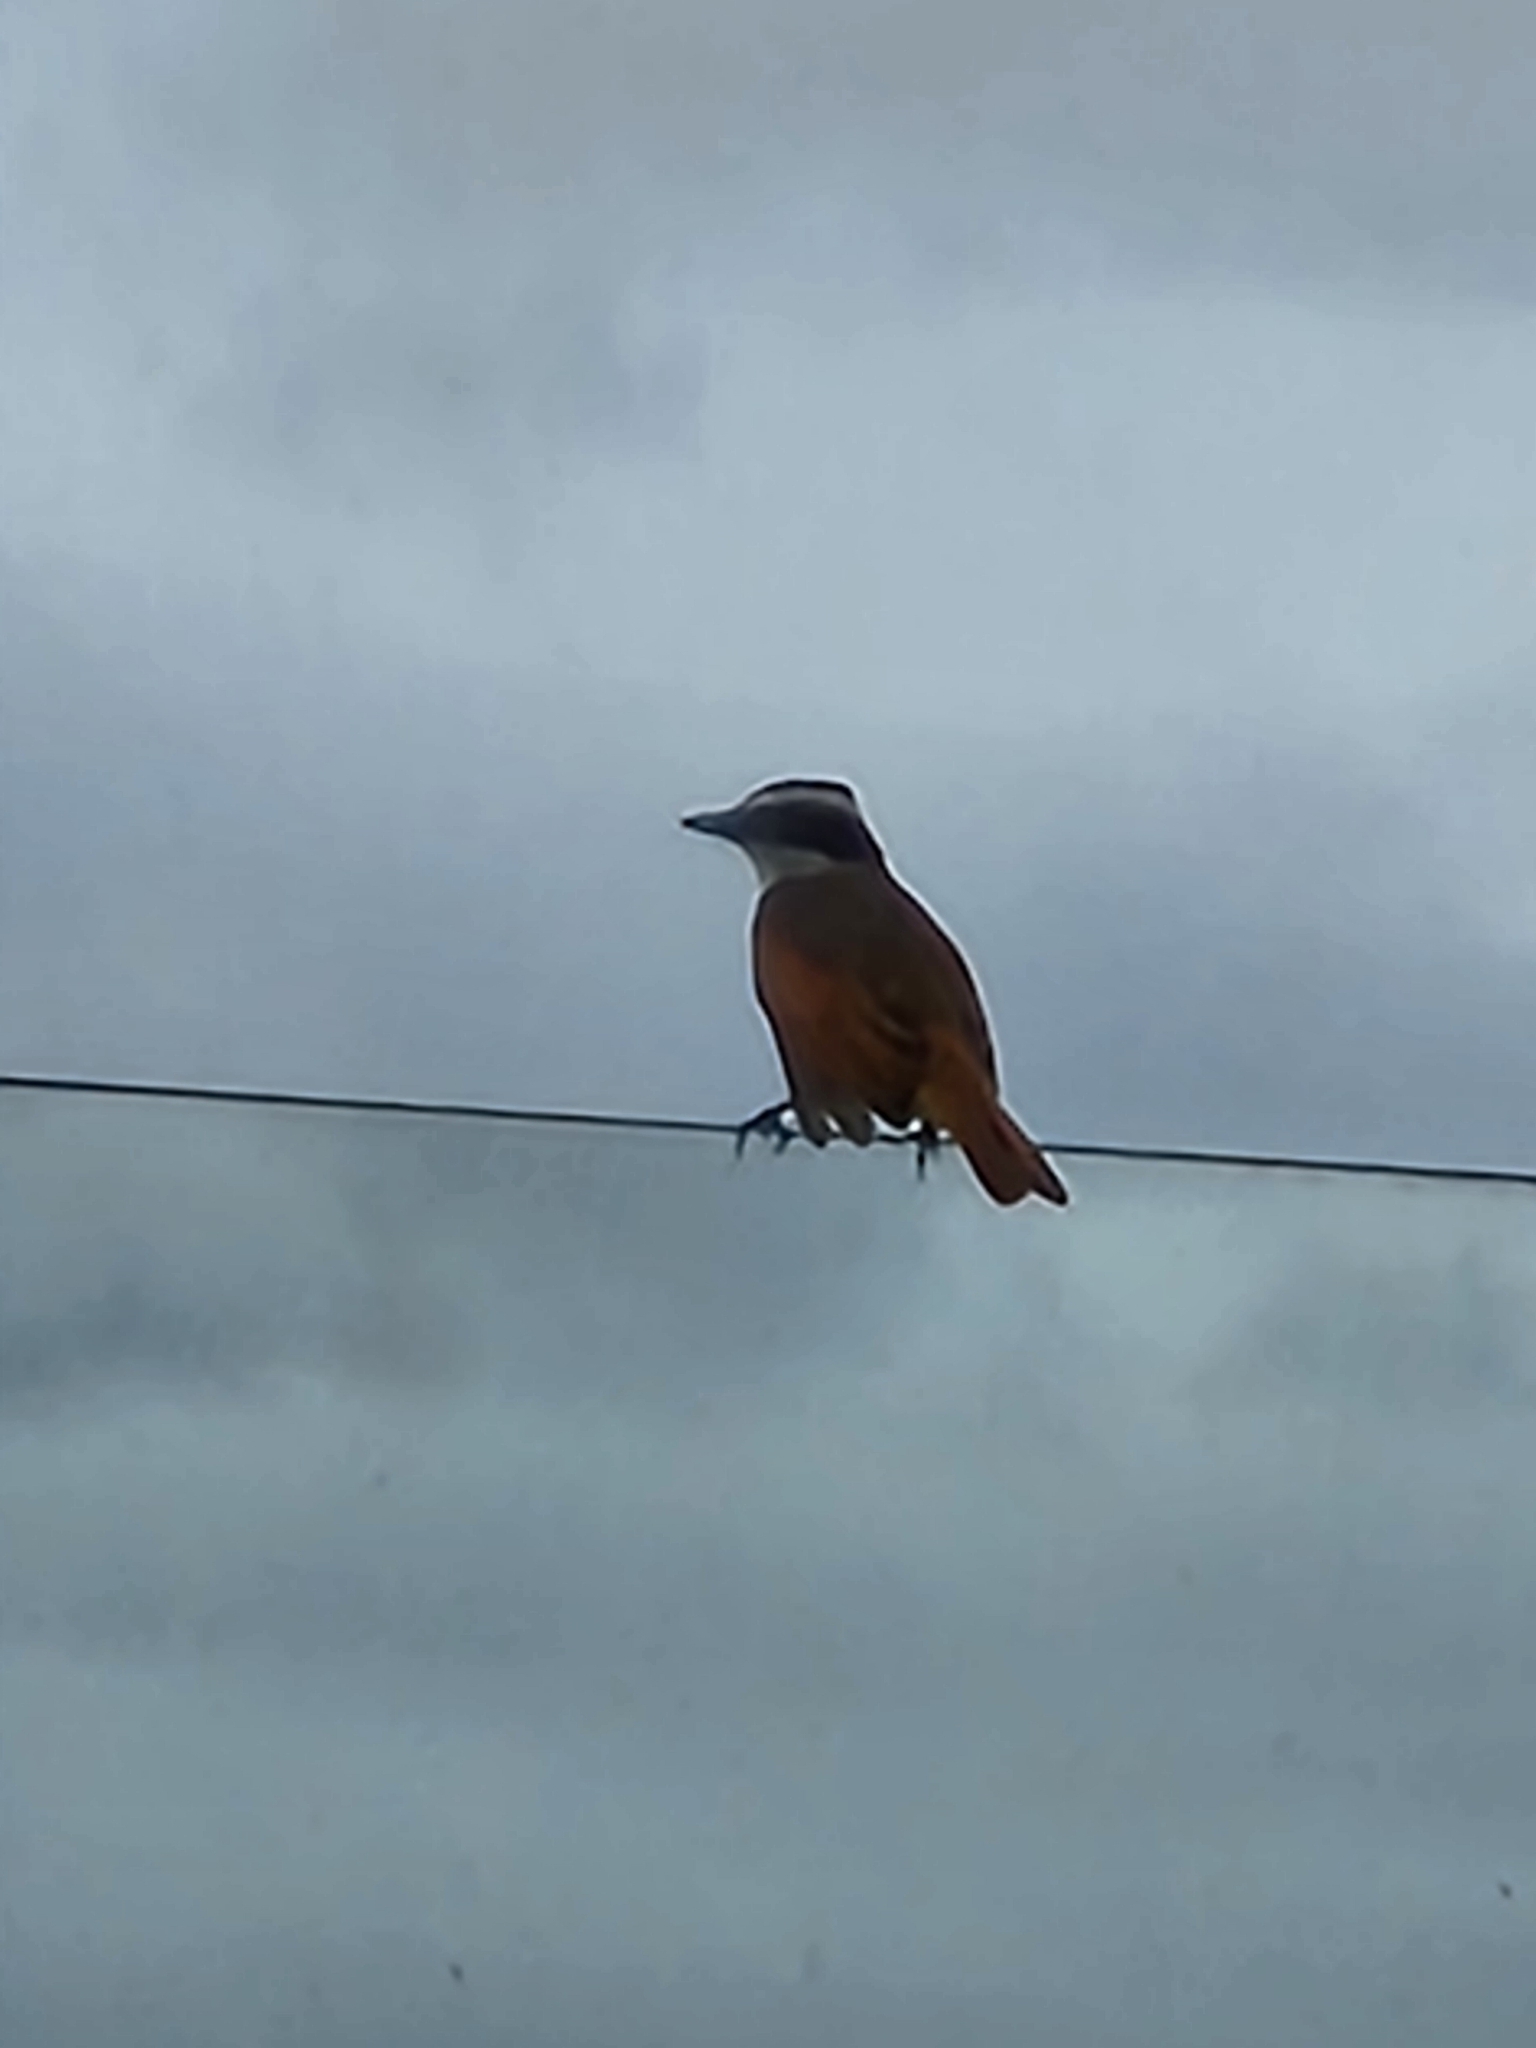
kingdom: Animalia
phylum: Chordata
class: Aves
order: Passeriformes
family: Tyrannidae
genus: Pitangus
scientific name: Pitangus sulphuratus
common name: Great kiskadee
